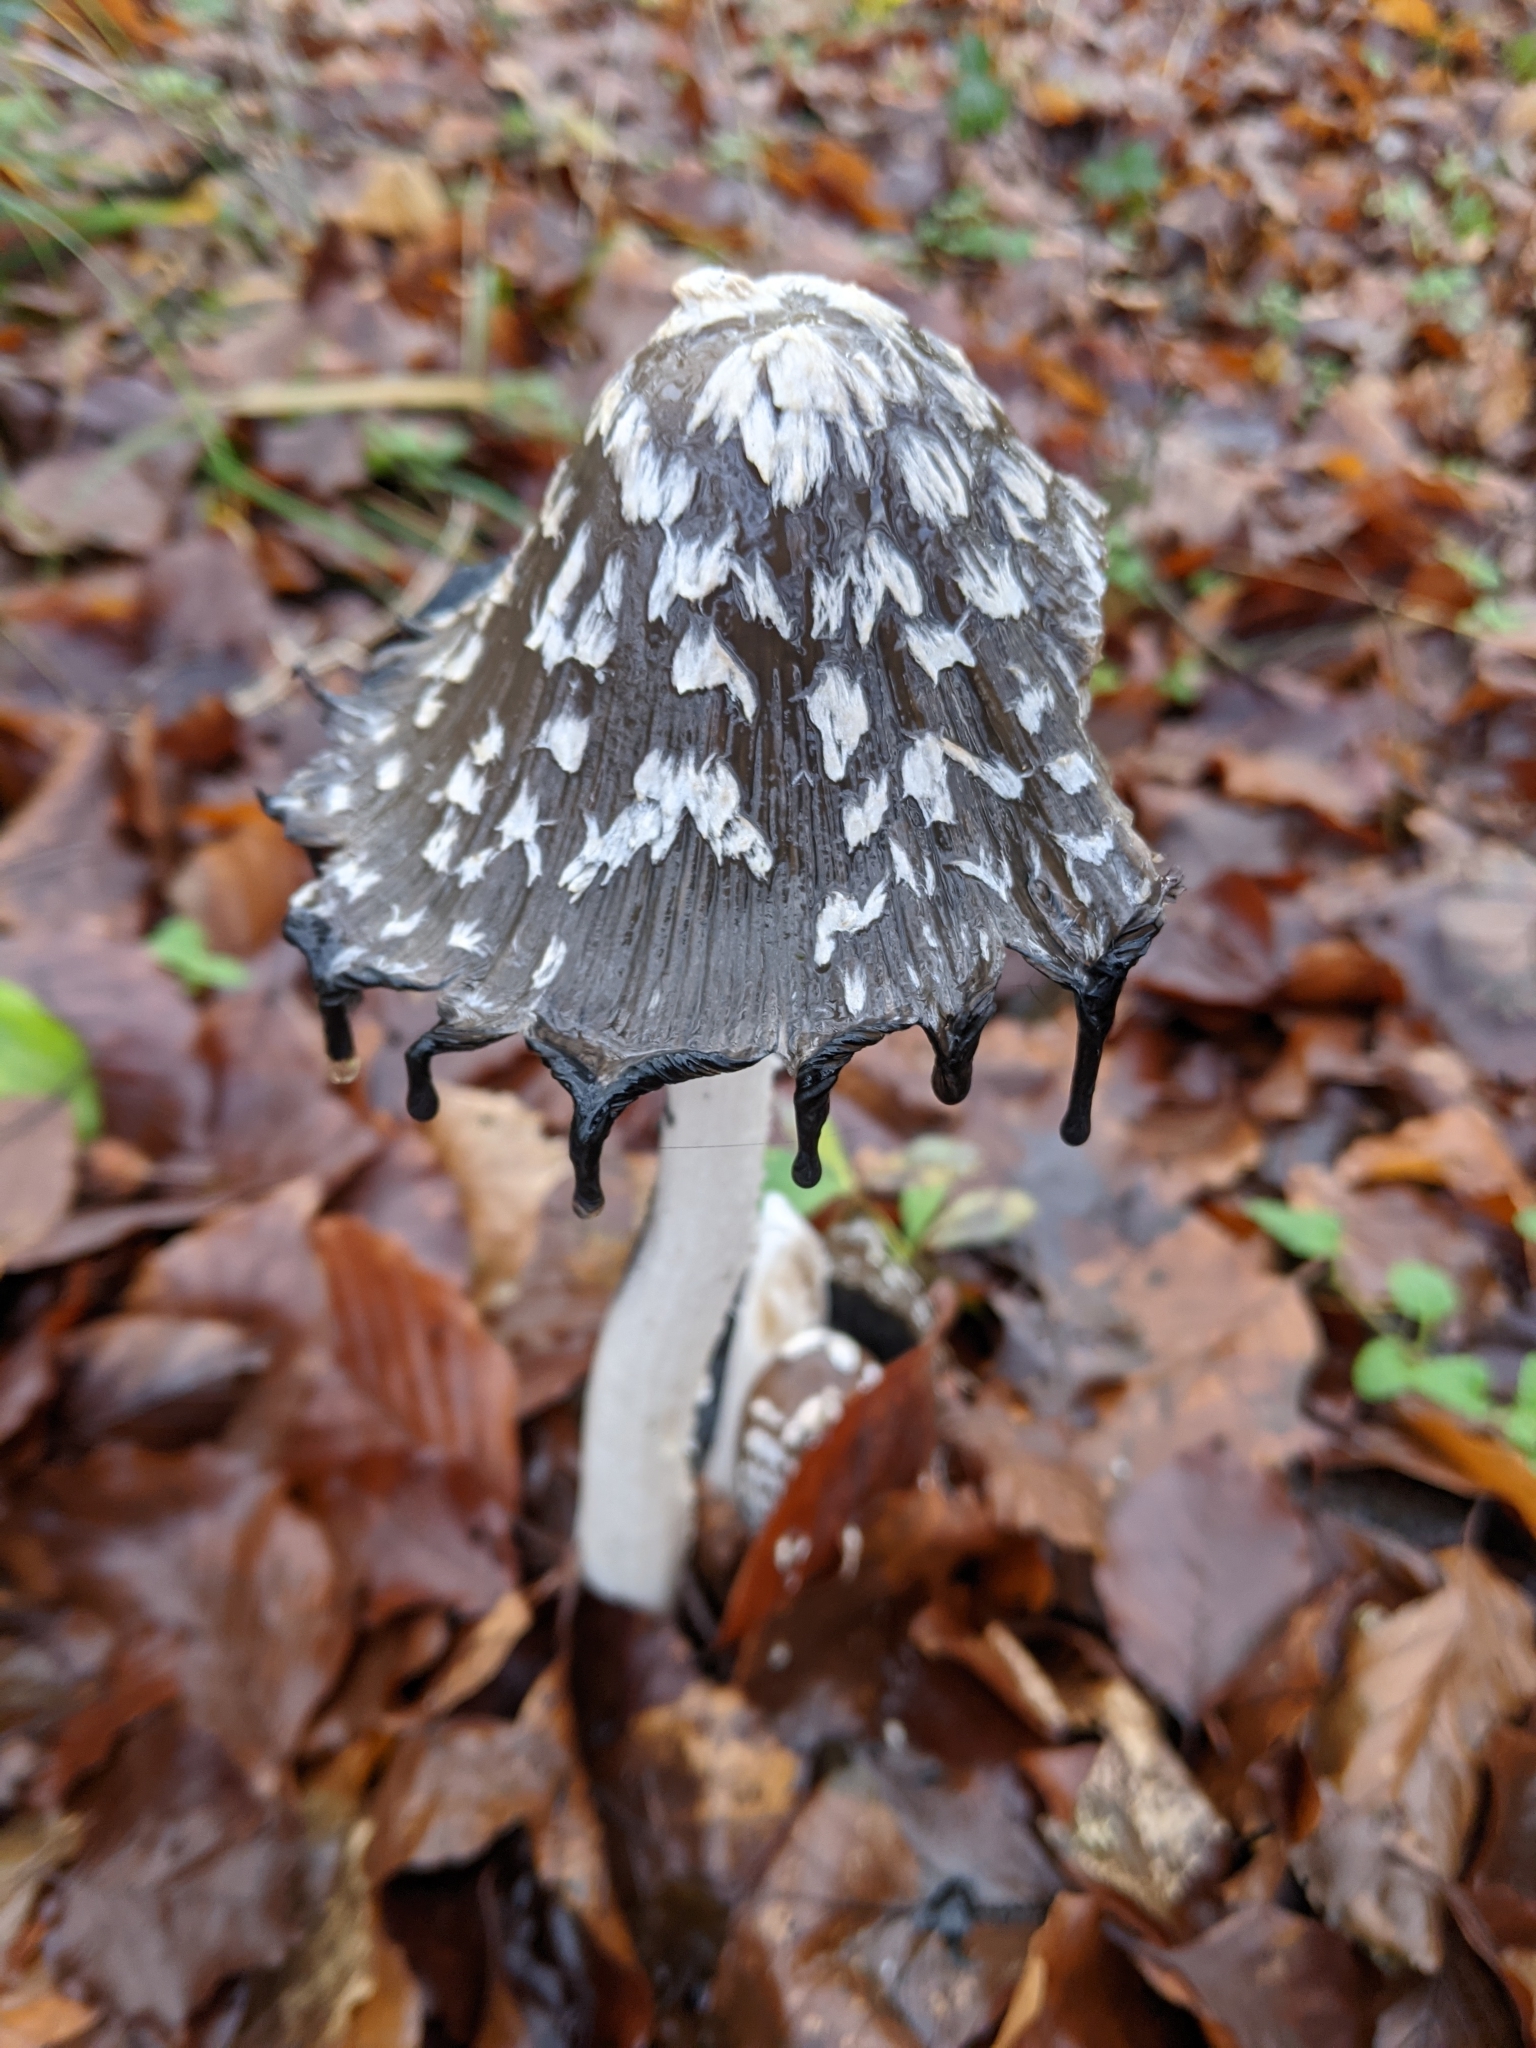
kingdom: Fungi
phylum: Basidiomycota
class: Agaricomycetes
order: Agaricales
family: Psathyrellaceae
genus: Coprinopsis
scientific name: Coprinopsis picacea
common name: Magpie inkcap
